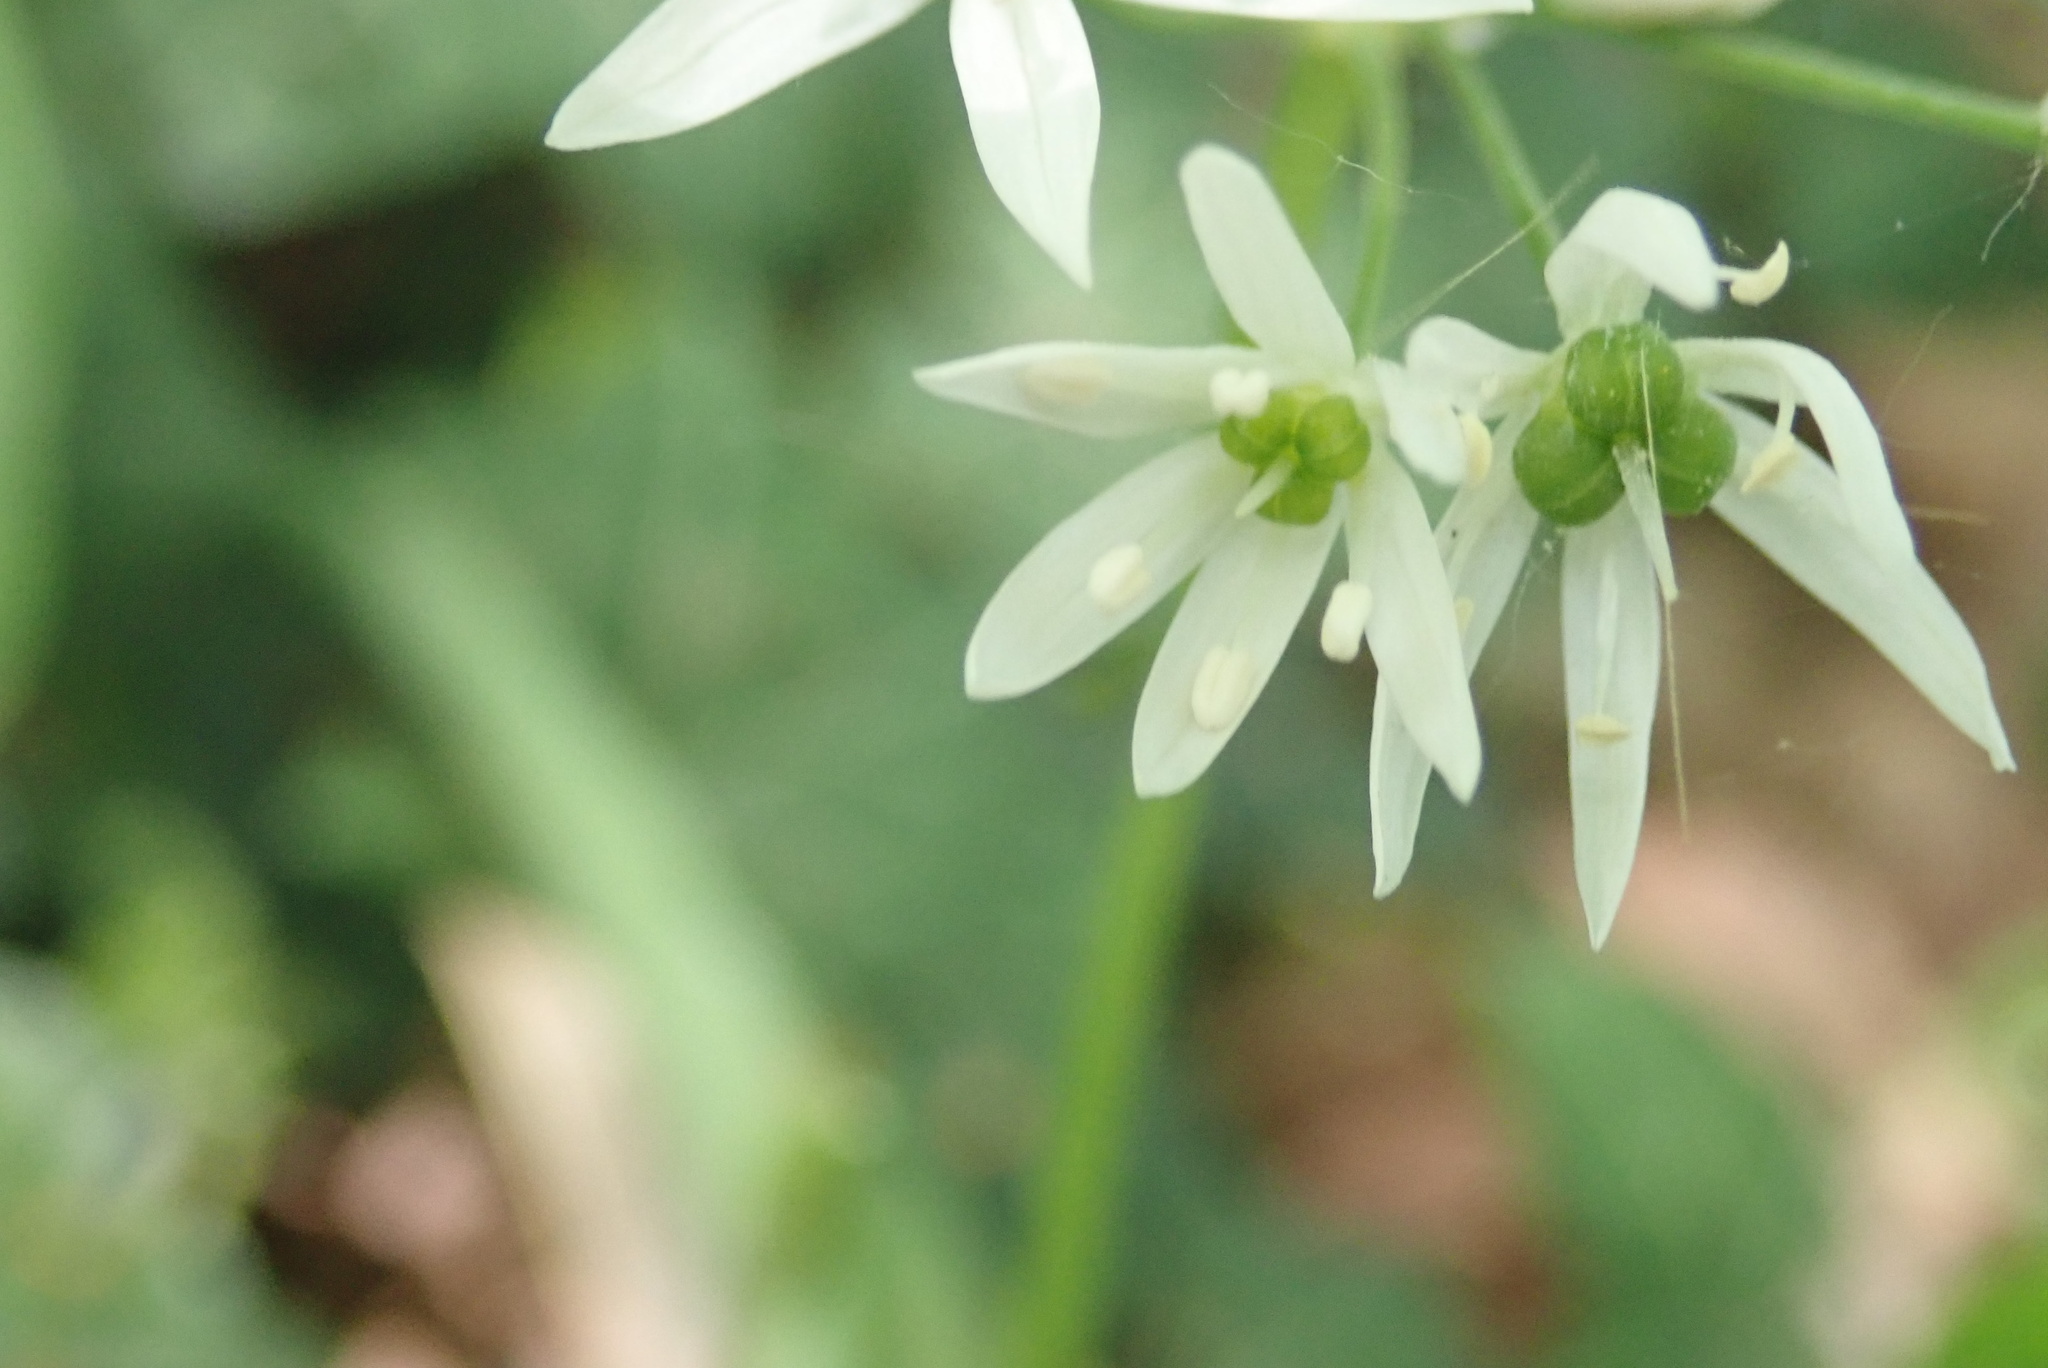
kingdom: Plantae
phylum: Tracheophyta
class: Liliopsida
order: Asparagales
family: Amaryllidaceae
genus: Allium
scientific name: Allium ursinum
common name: Ramsons
